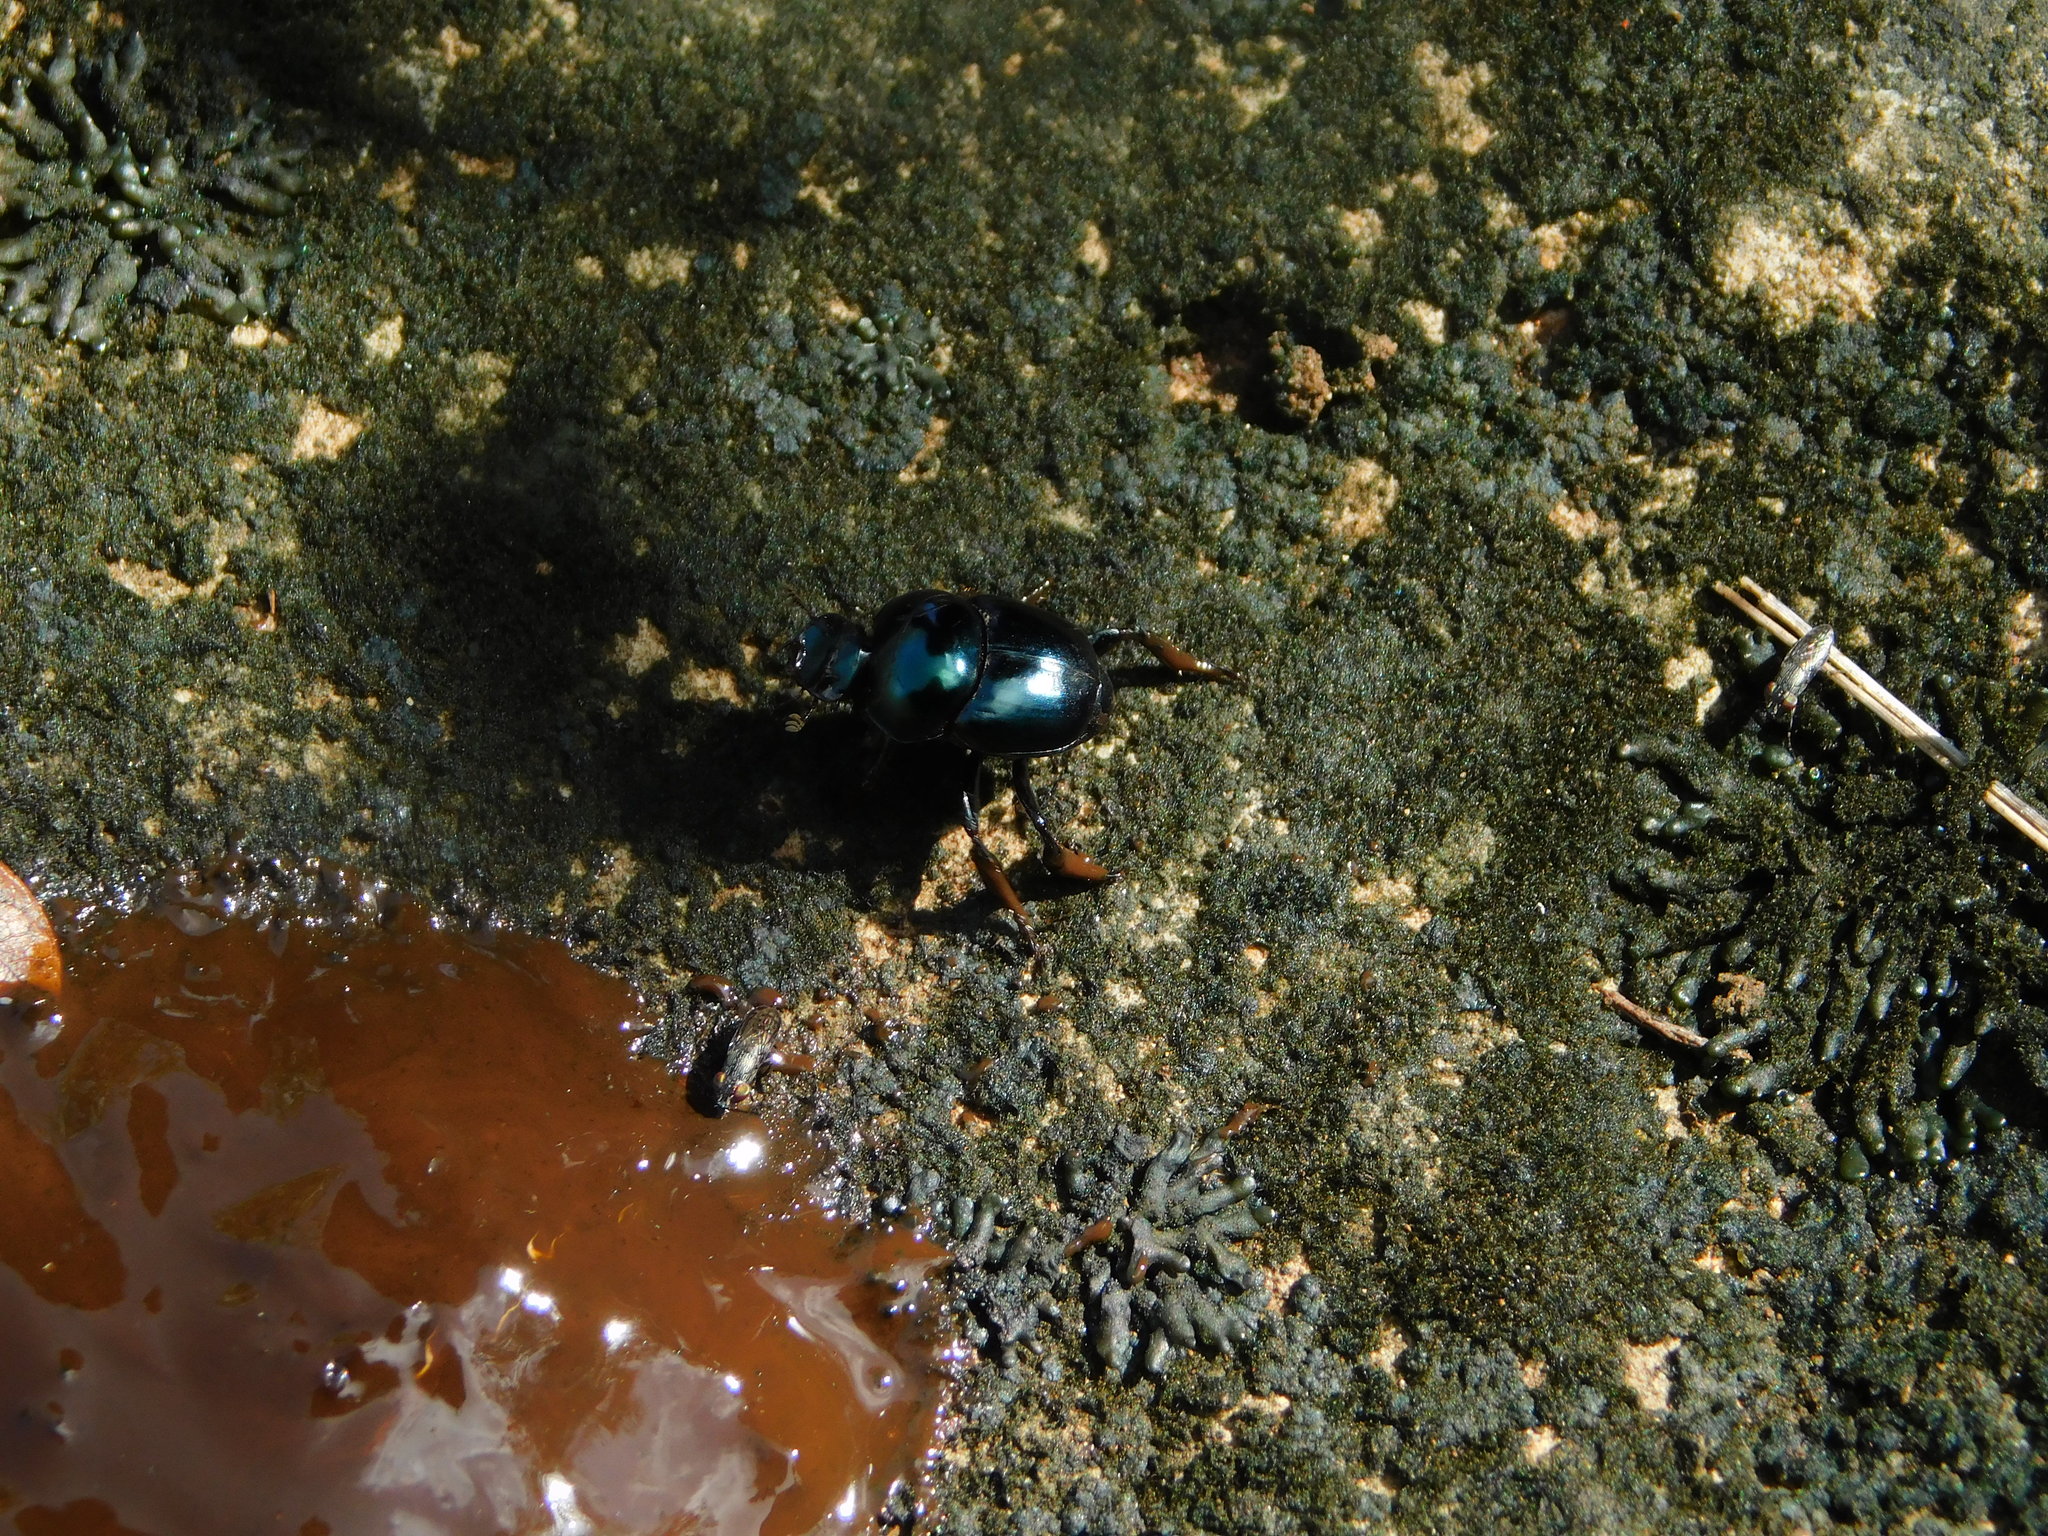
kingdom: Animalia
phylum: Arthropoda
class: Insecta
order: Coleoptera
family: Scarabaeidae
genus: Canthon
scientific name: Canthon indigaceus
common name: Tumblebug
